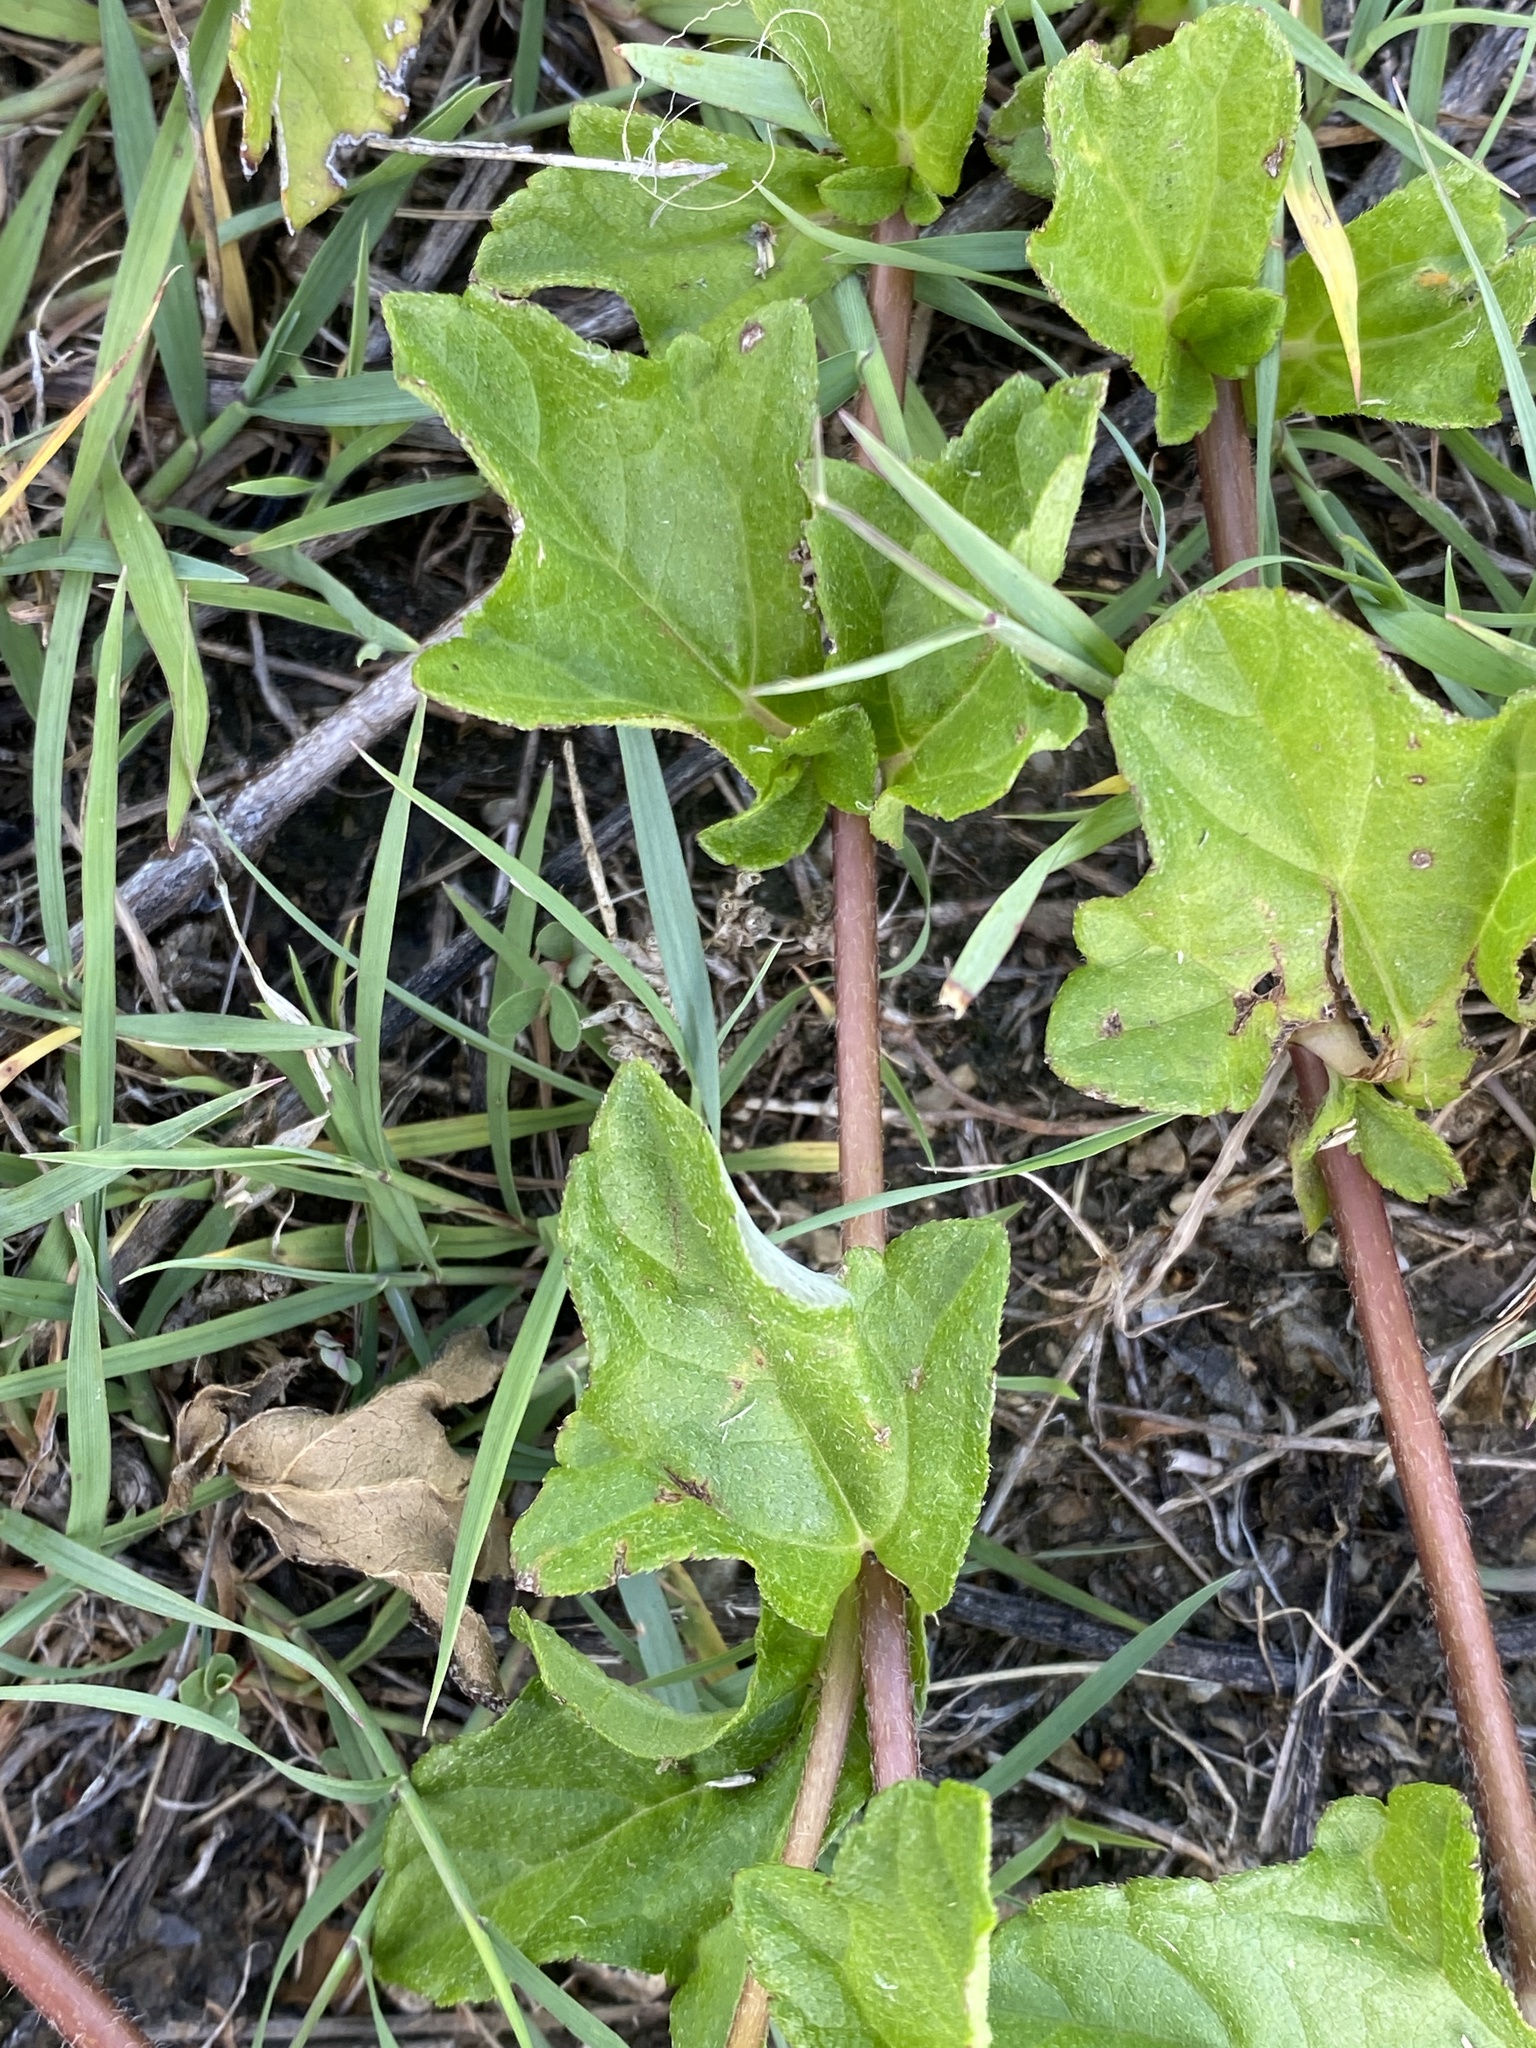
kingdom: Plantae
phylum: Tracheophyta
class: Magnoliopsida
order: Asterales
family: Asteraceae
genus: Sphagneticola
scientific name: Sphagneticola trilobata
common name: Bay biscayne creeping-oxeye
